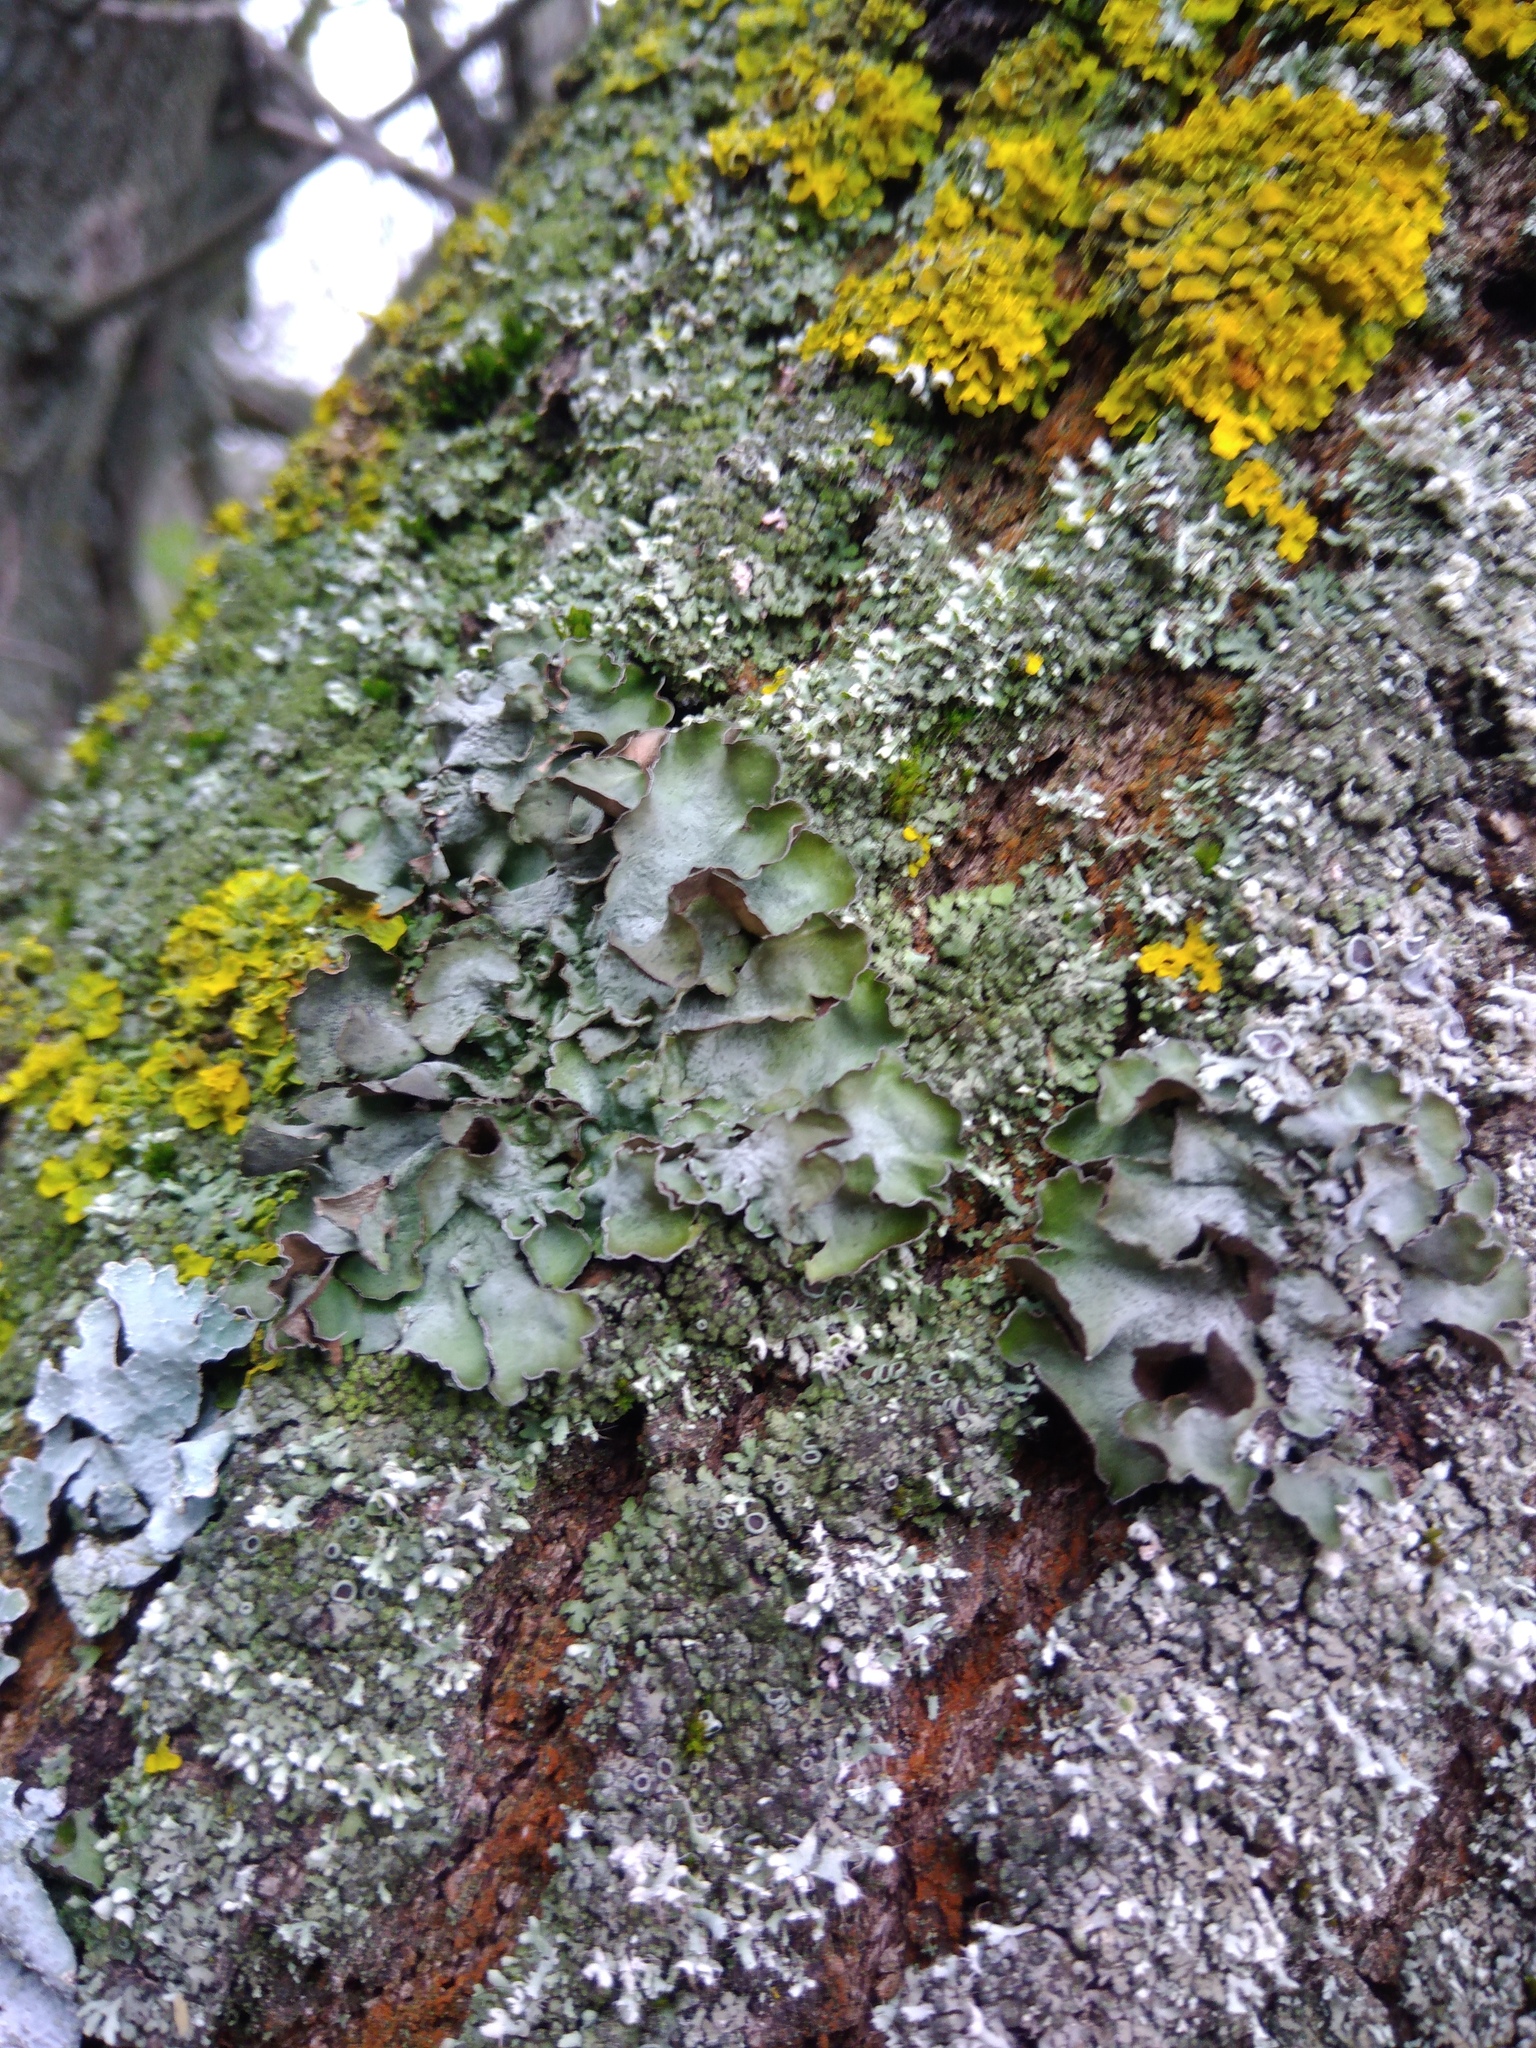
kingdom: Fungi
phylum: Ascomycota
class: Lecanoromycetes
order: Lecanorales
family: Parmeliaceae
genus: Pleurosticta
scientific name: Pleurosticta acetabulum
